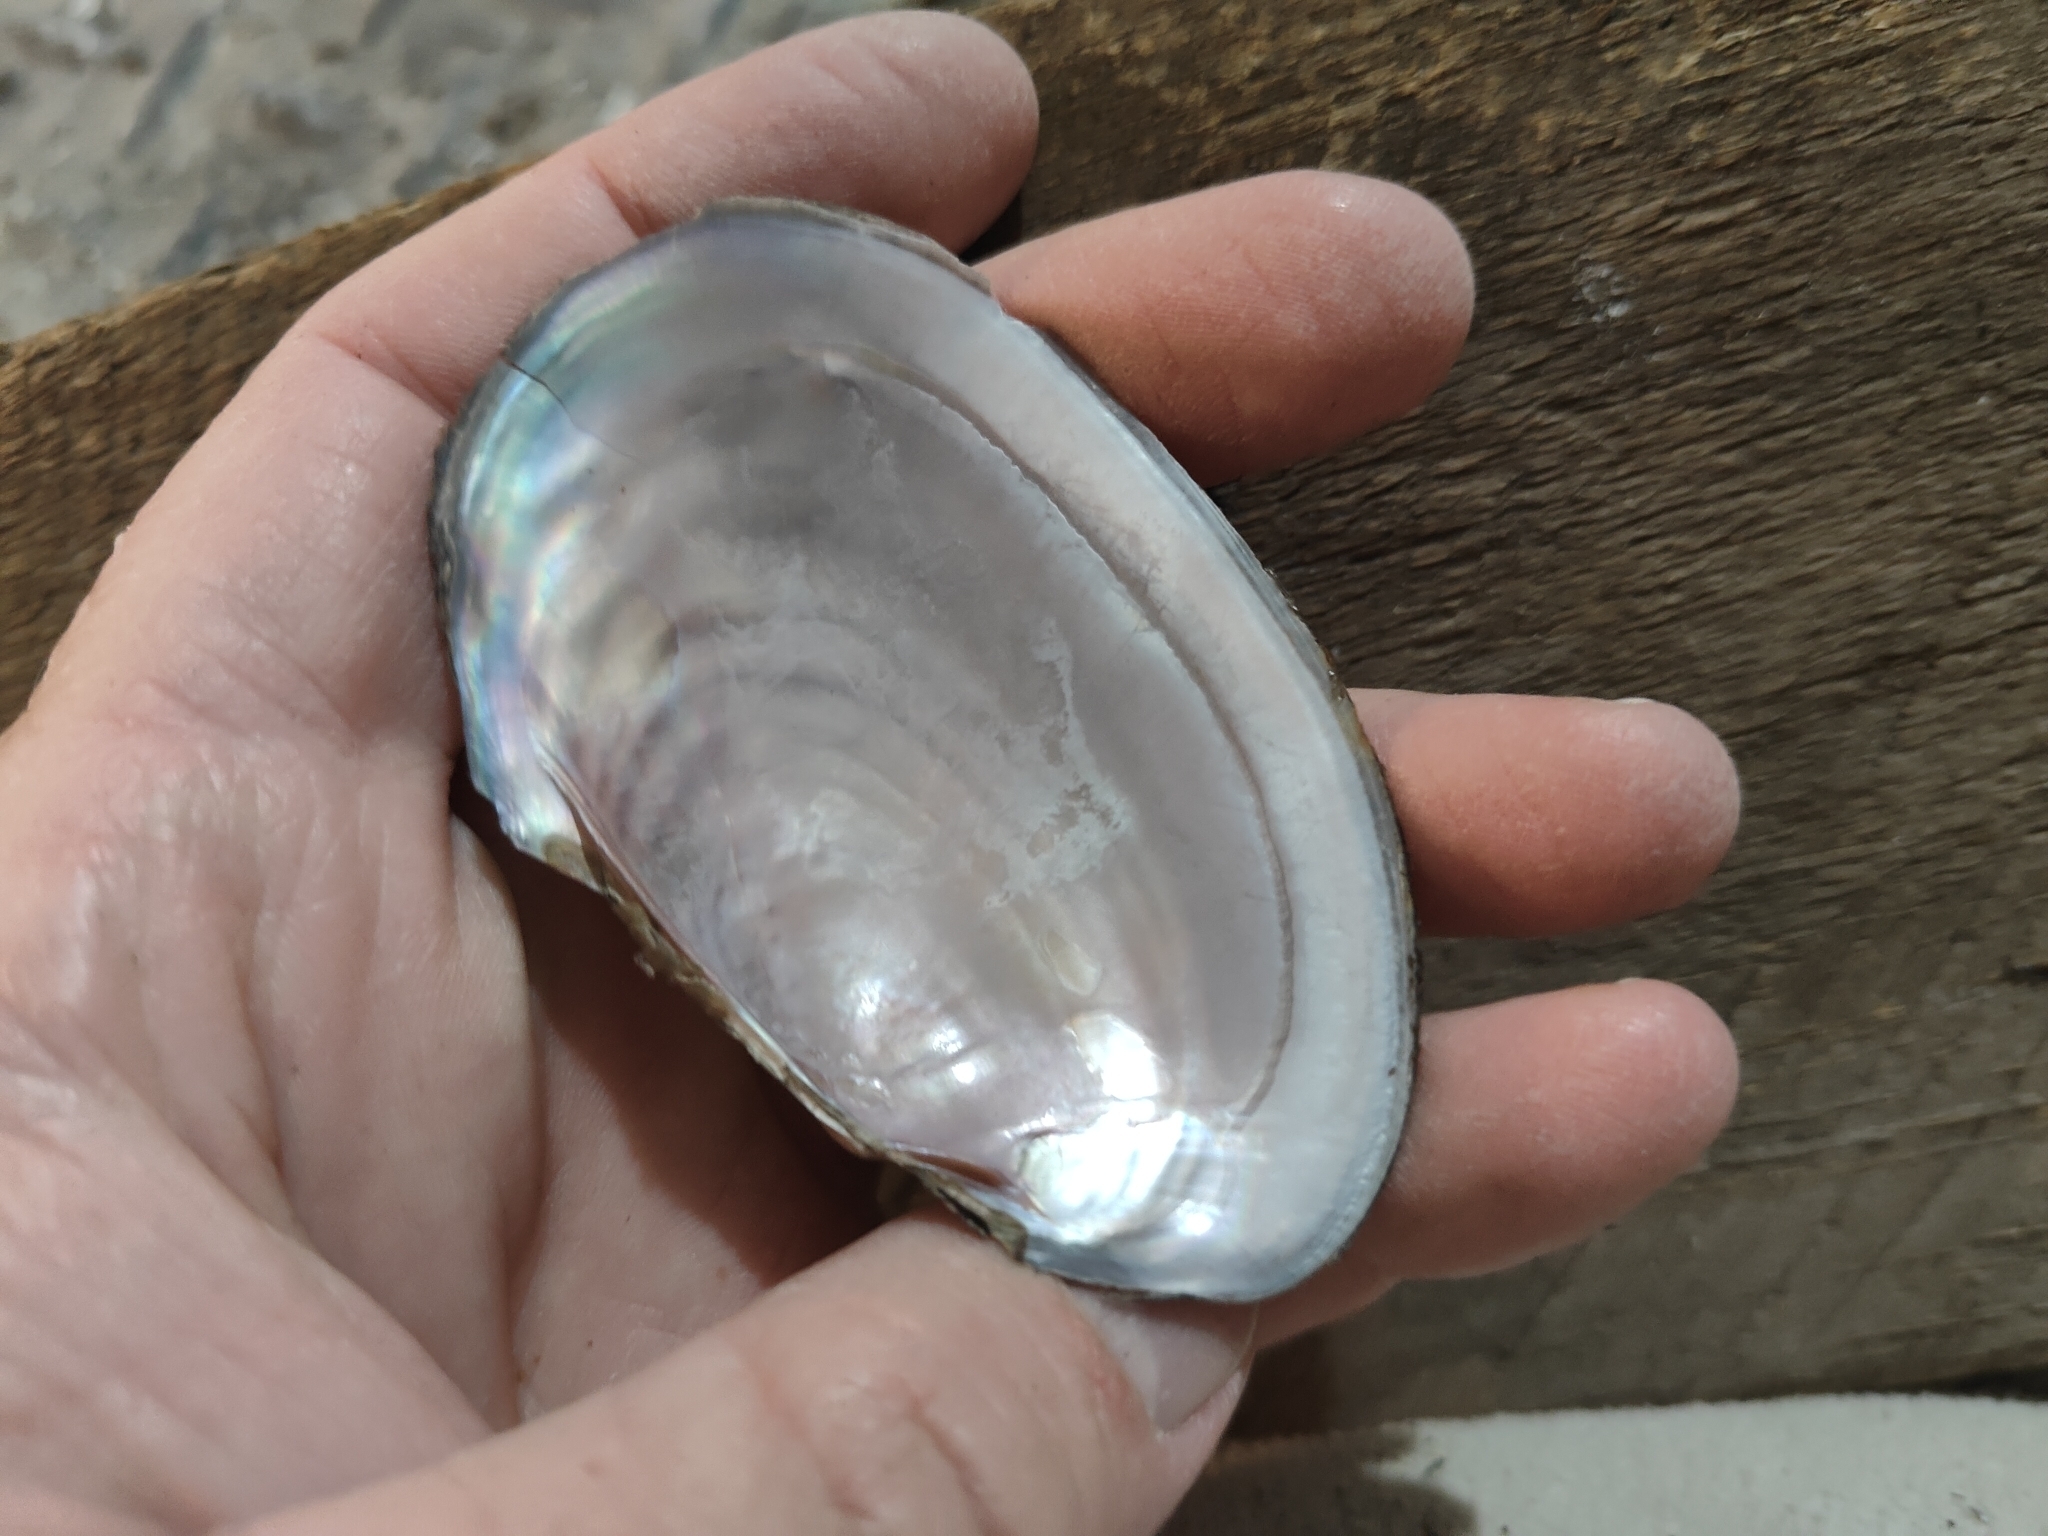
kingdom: Animalia
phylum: Mollusca
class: Bivalvia
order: Unionida
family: Unionidae
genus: Potamilus
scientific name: Potamilus ohiensis
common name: Pink papershell
